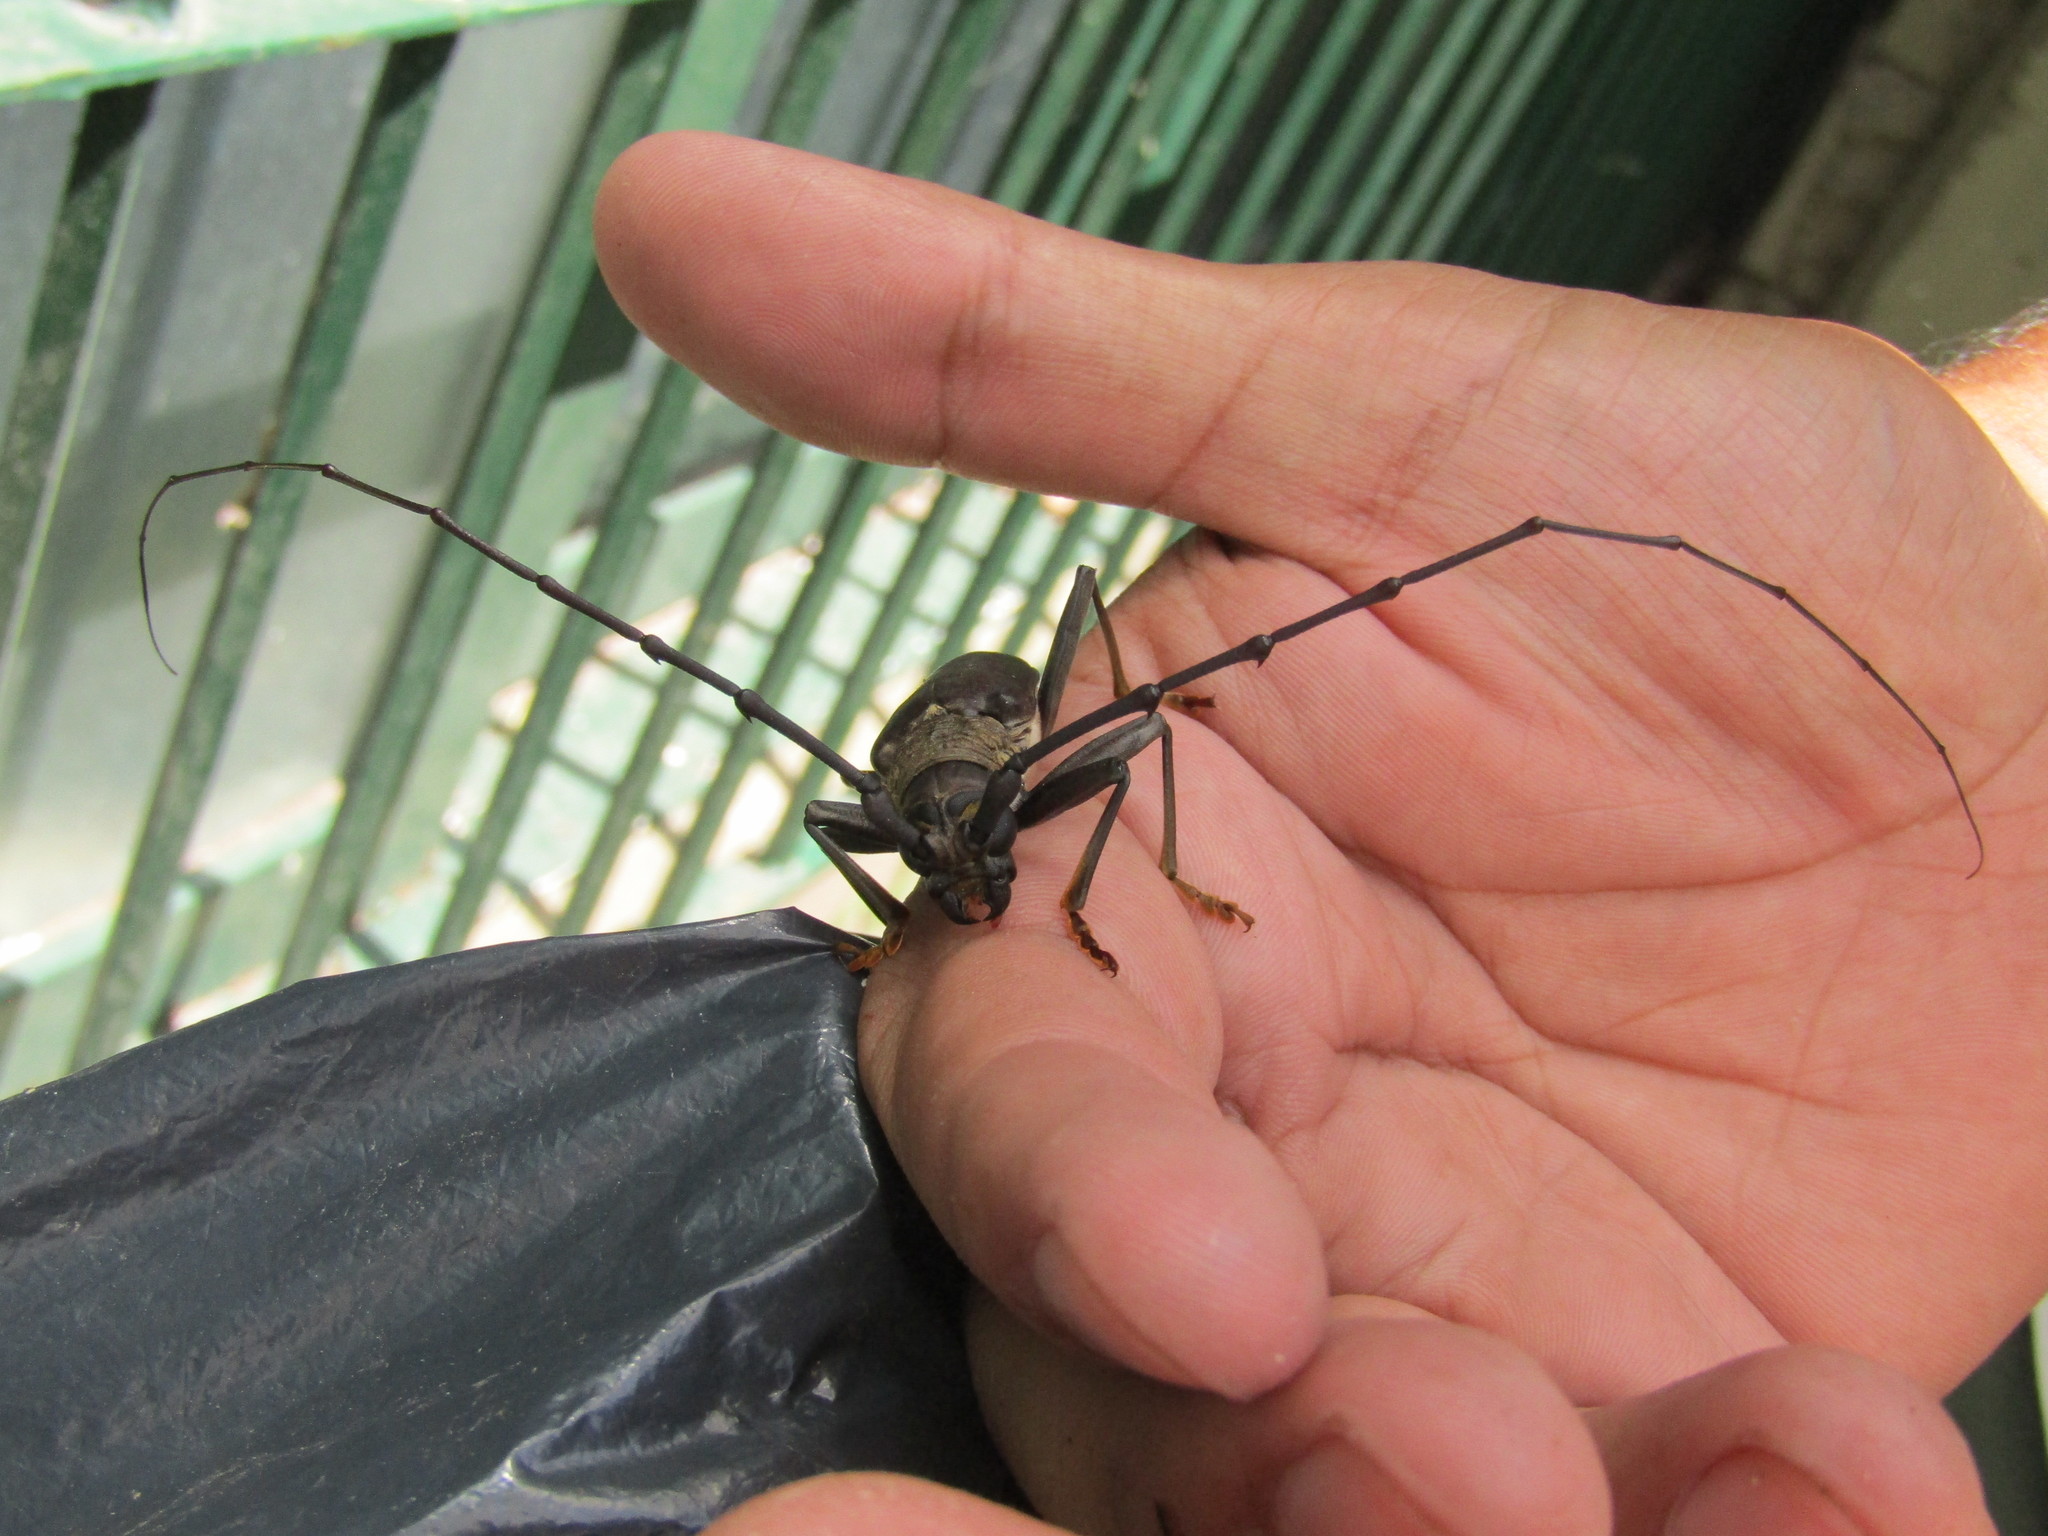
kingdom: Animalia
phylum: Arthropoda
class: Insecta
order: Coleoptera
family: Cerambycidae
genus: Juiaparus
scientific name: Juiaparus batus
